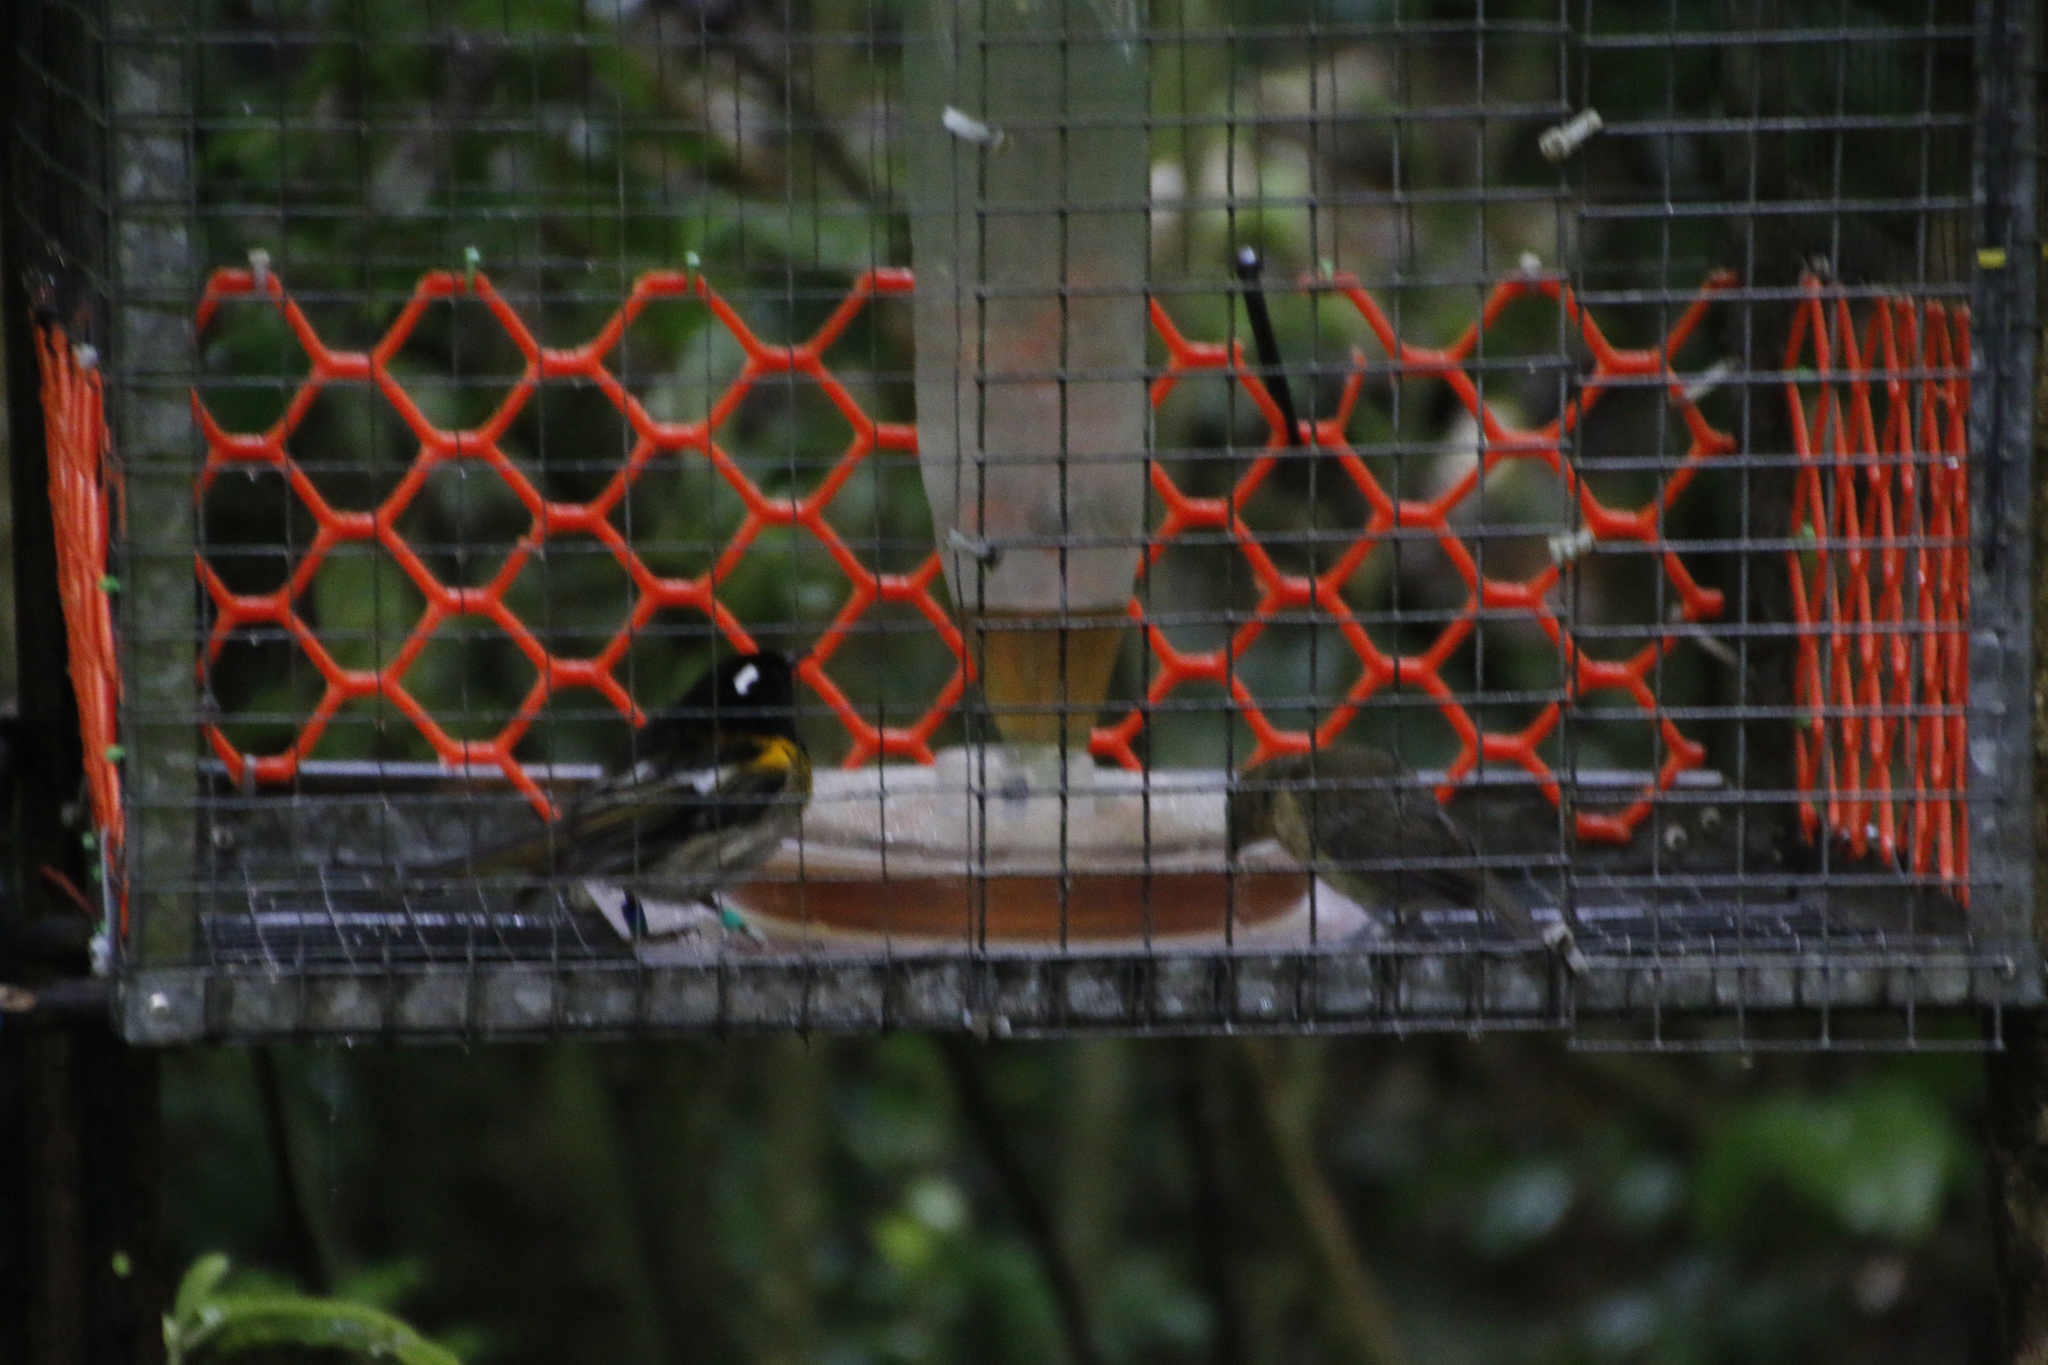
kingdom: Animalia
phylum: Chordata
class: Aves
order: Passeriformes
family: Notiomystidae
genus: Notiomystis
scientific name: Notiomystis cincta
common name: Stitchbird
